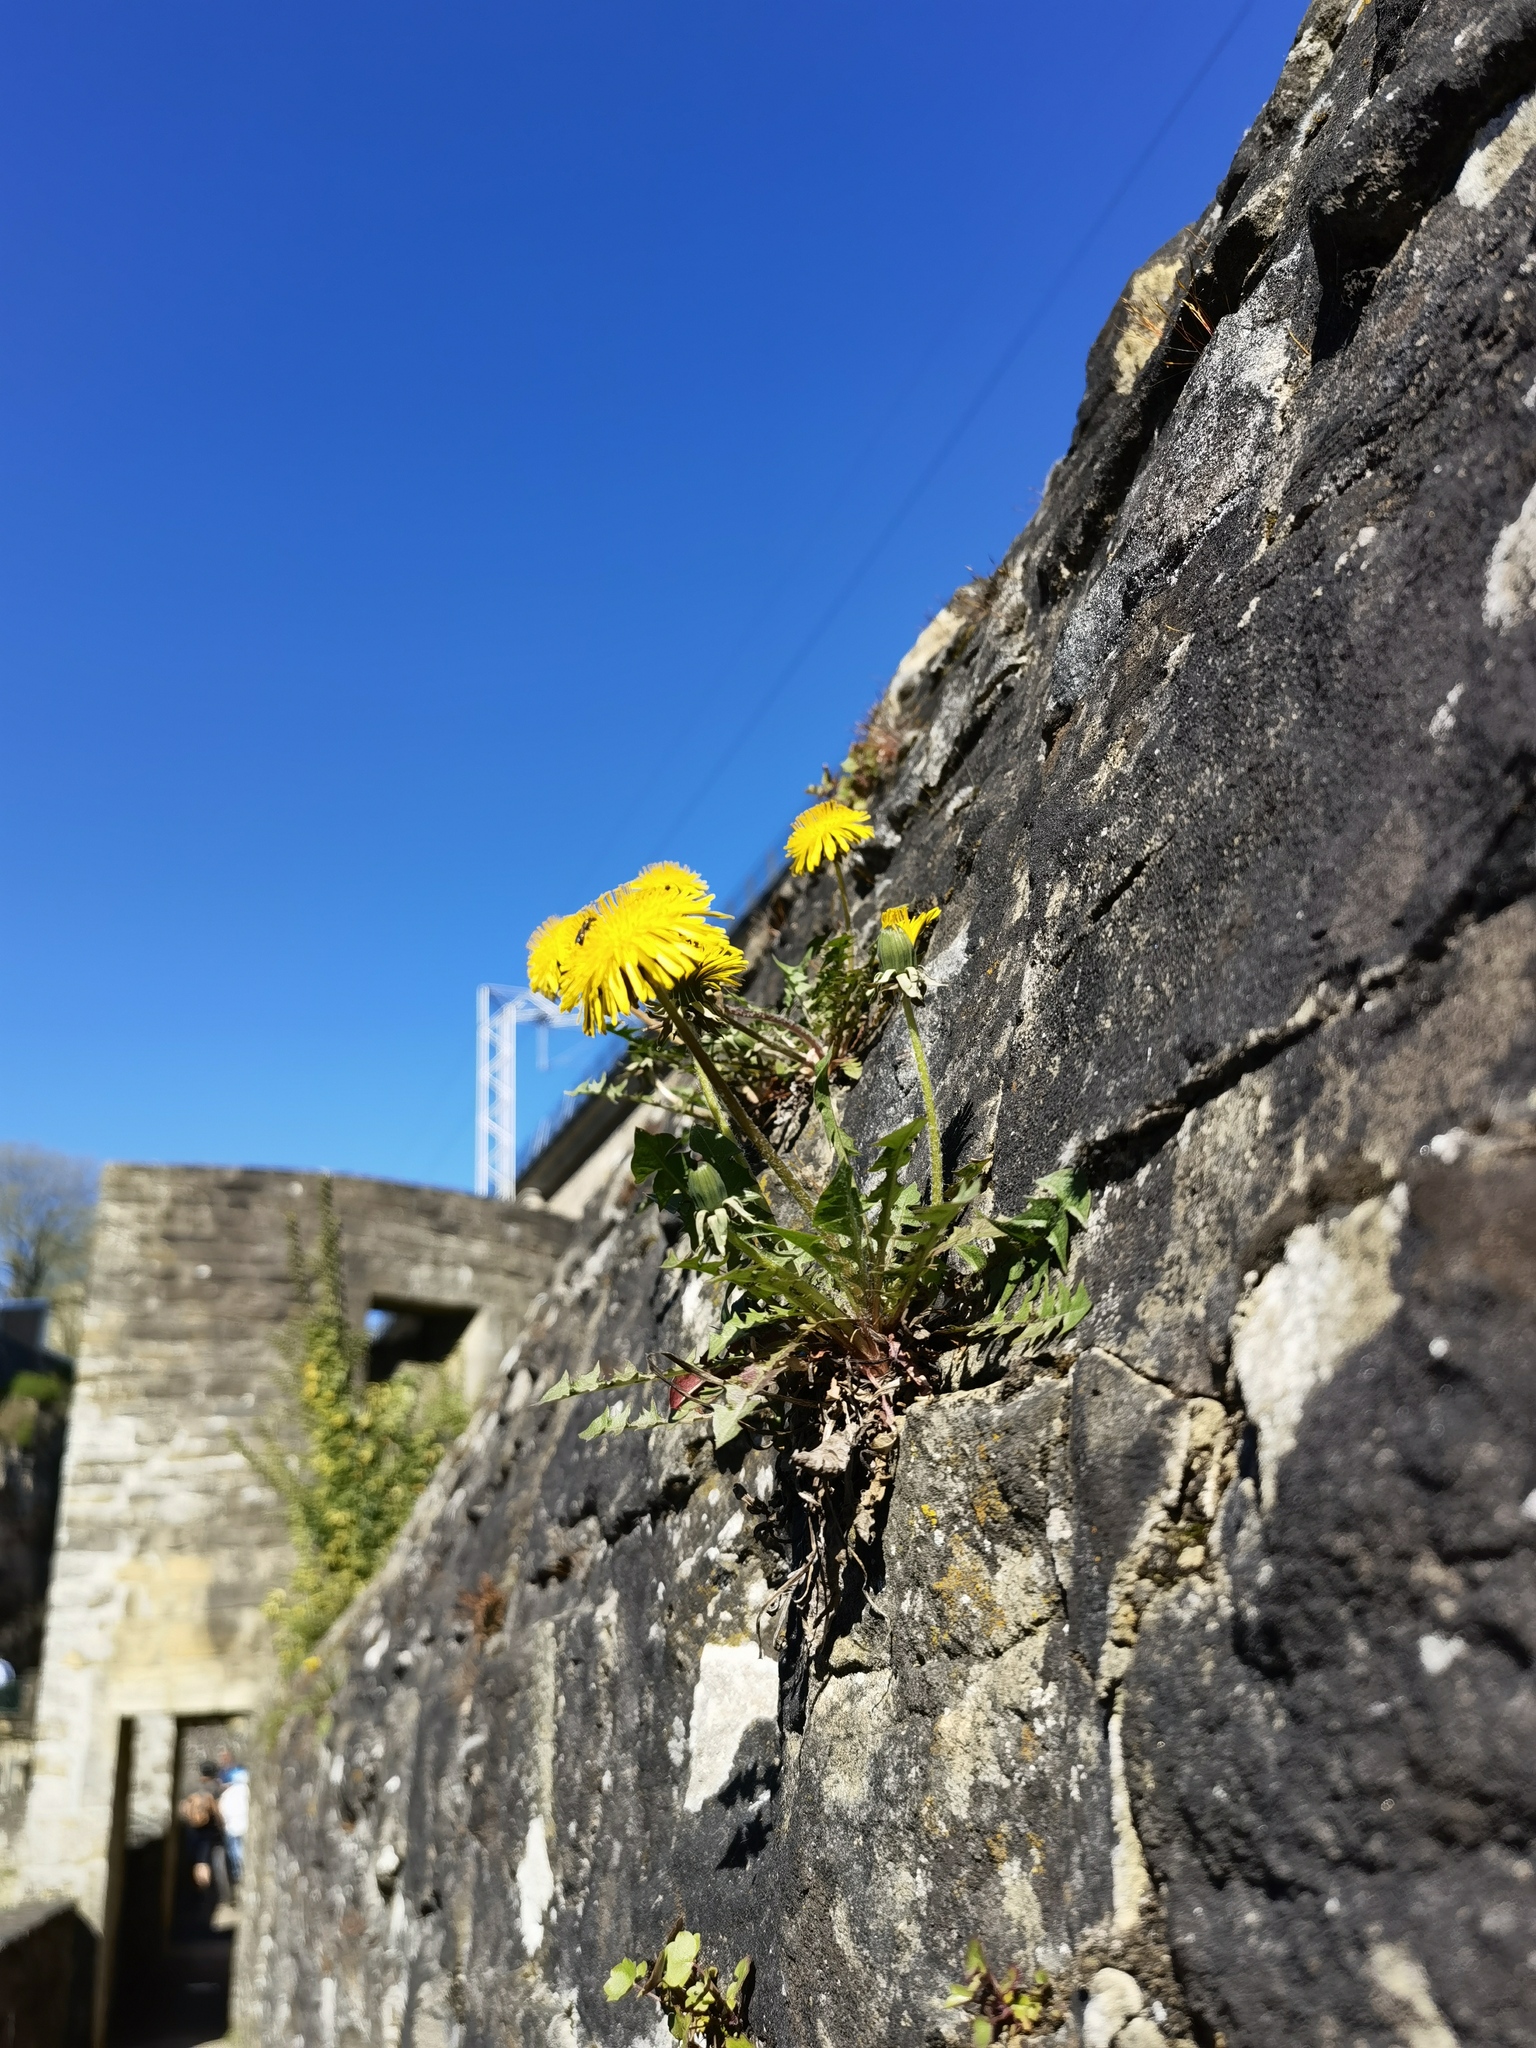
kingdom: Plantae
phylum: Tracheophyta
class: Magnoliopsida
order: Asterales
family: Asteraceae
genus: Taraxacum
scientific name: Taraxacum officinale
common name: Common dandelion
